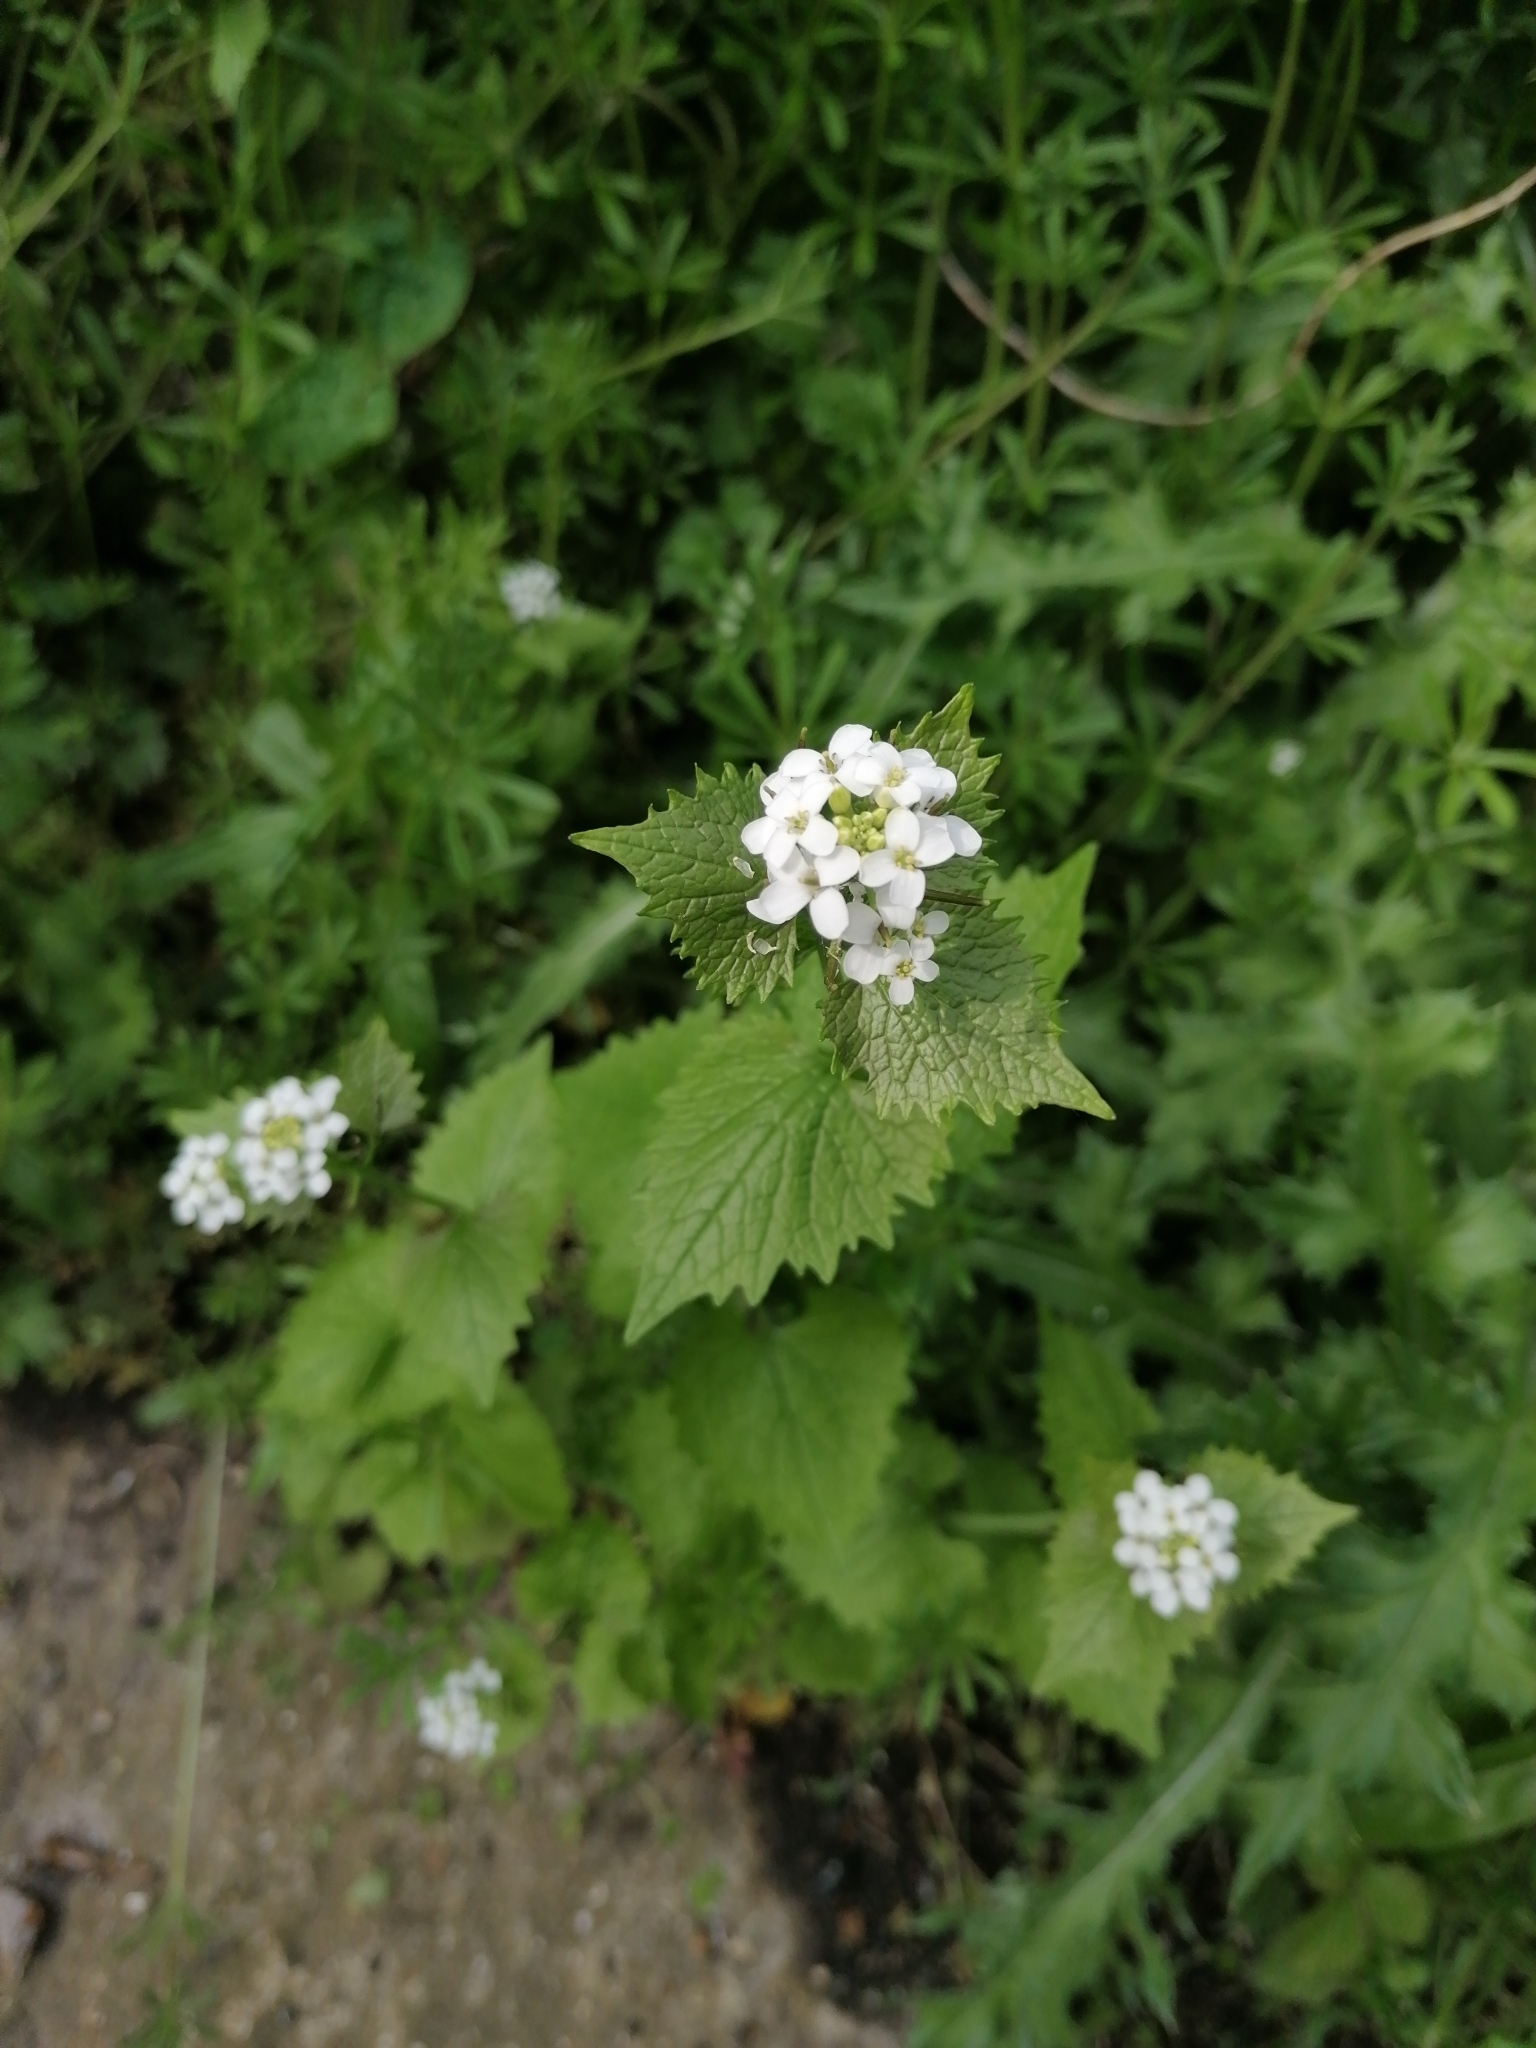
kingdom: Plantae
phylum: Tracheophyta
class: Magnoliopsida
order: Brassicales
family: Brassicaceae
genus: Alliaria
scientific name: Alliaria petiolata
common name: Garlic mustard
